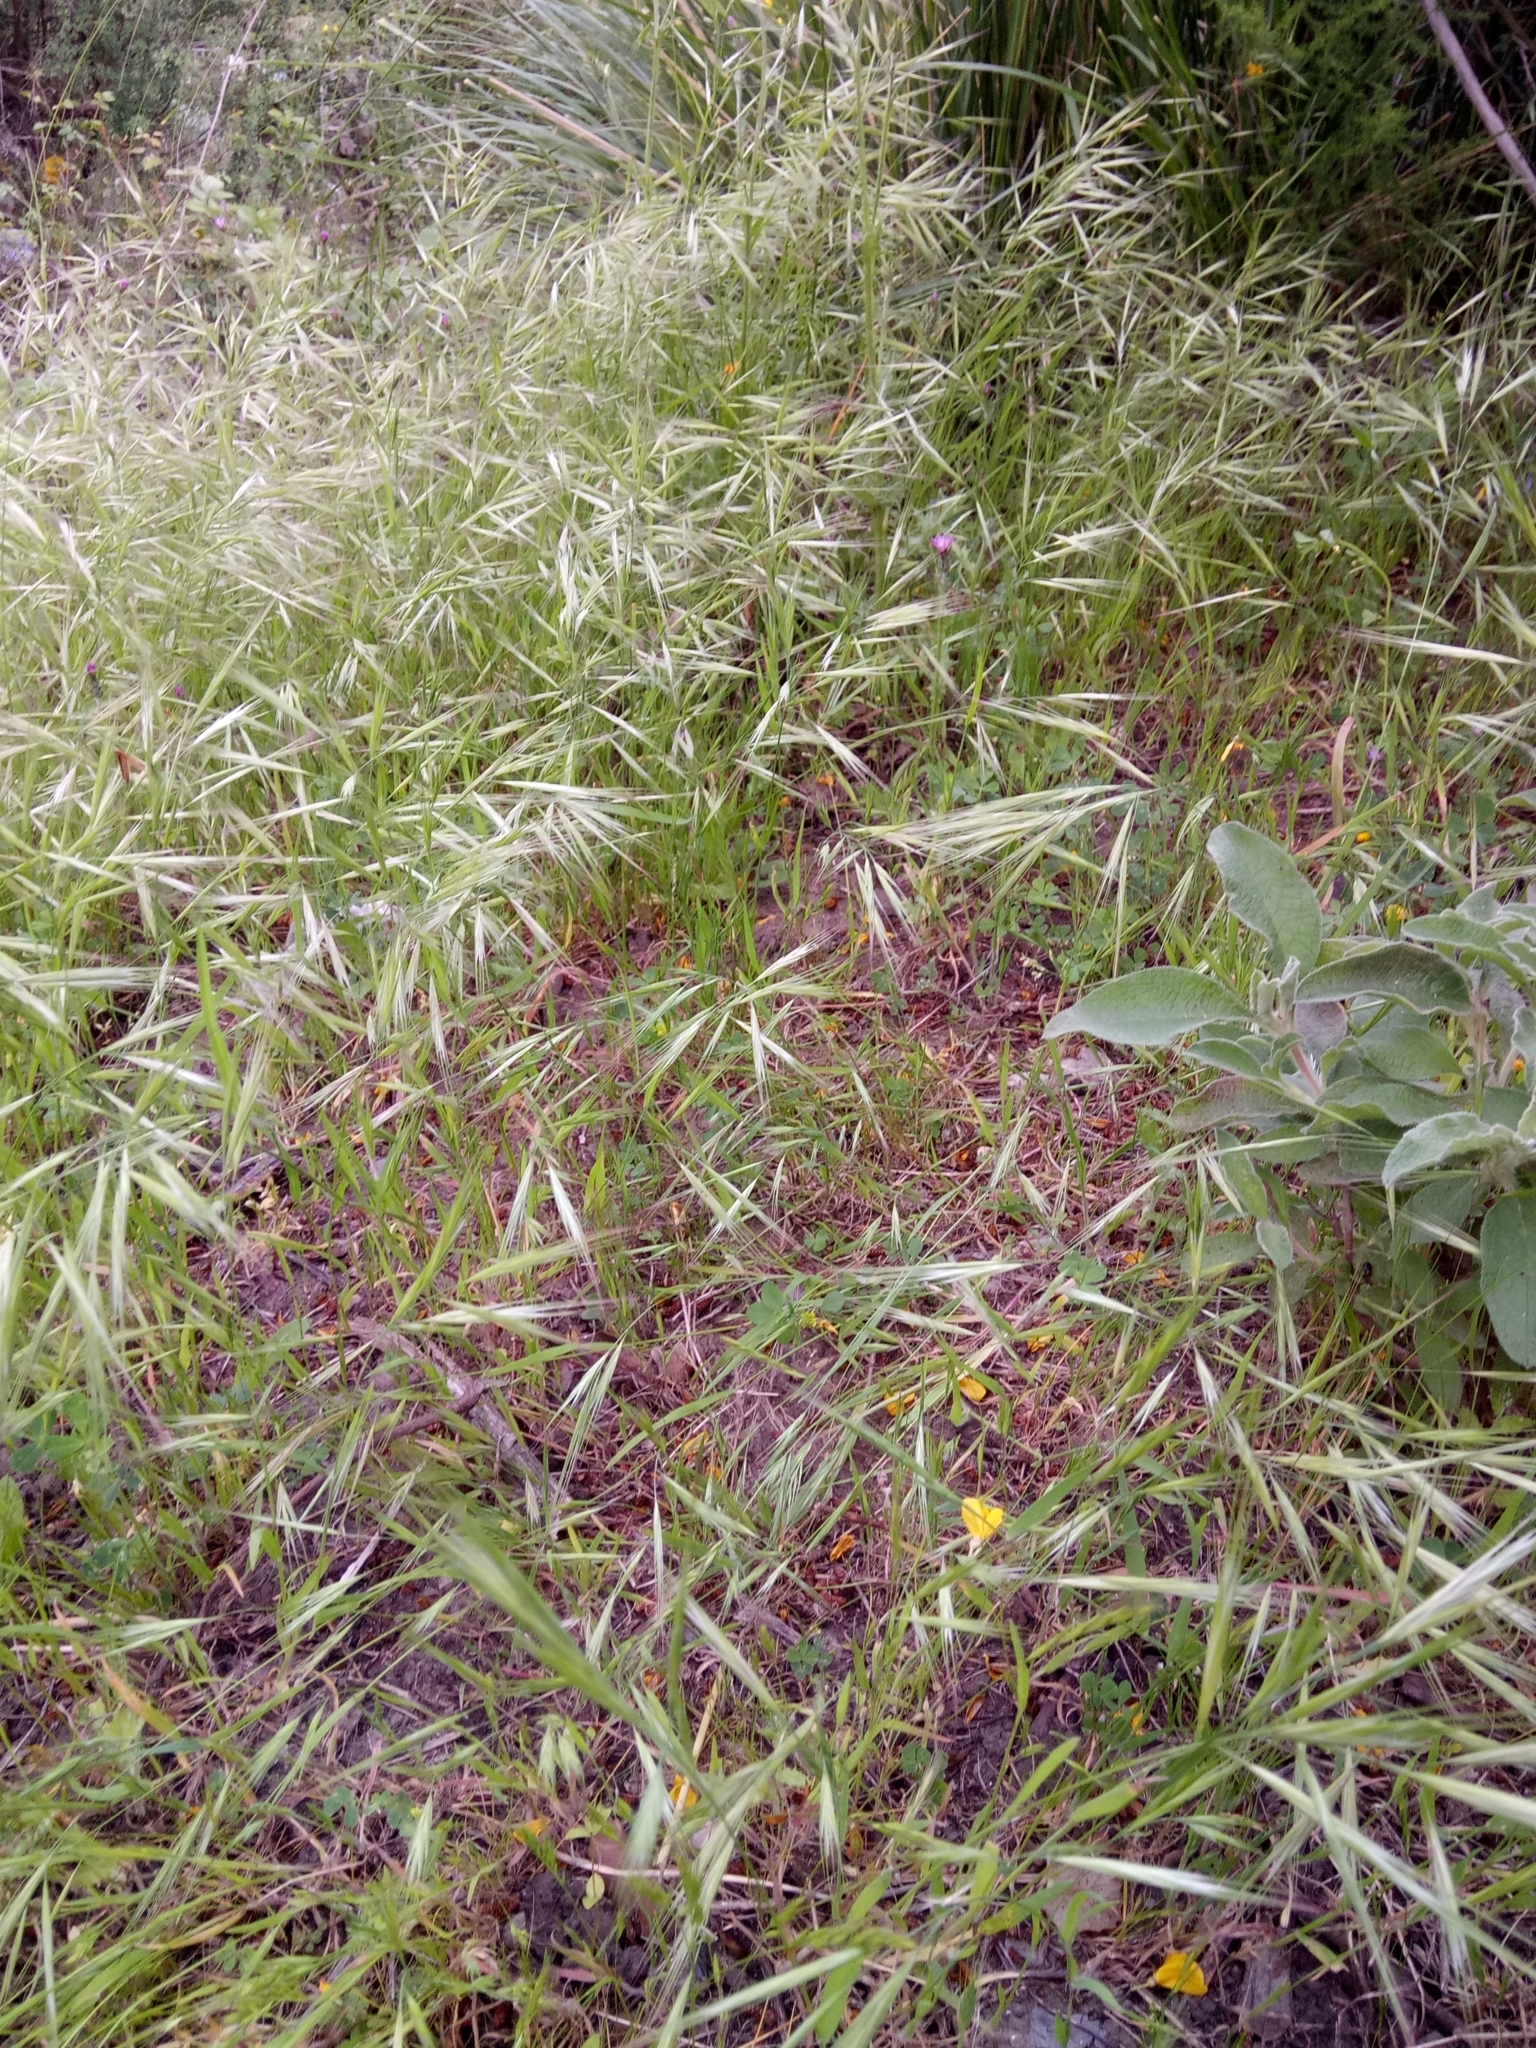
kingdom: Plantae
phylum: Tracheophyta
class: Liliopsida
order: Poales
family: Poaceae
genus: Bromus
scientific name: Bromus diandrus
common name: Ripgut brome
